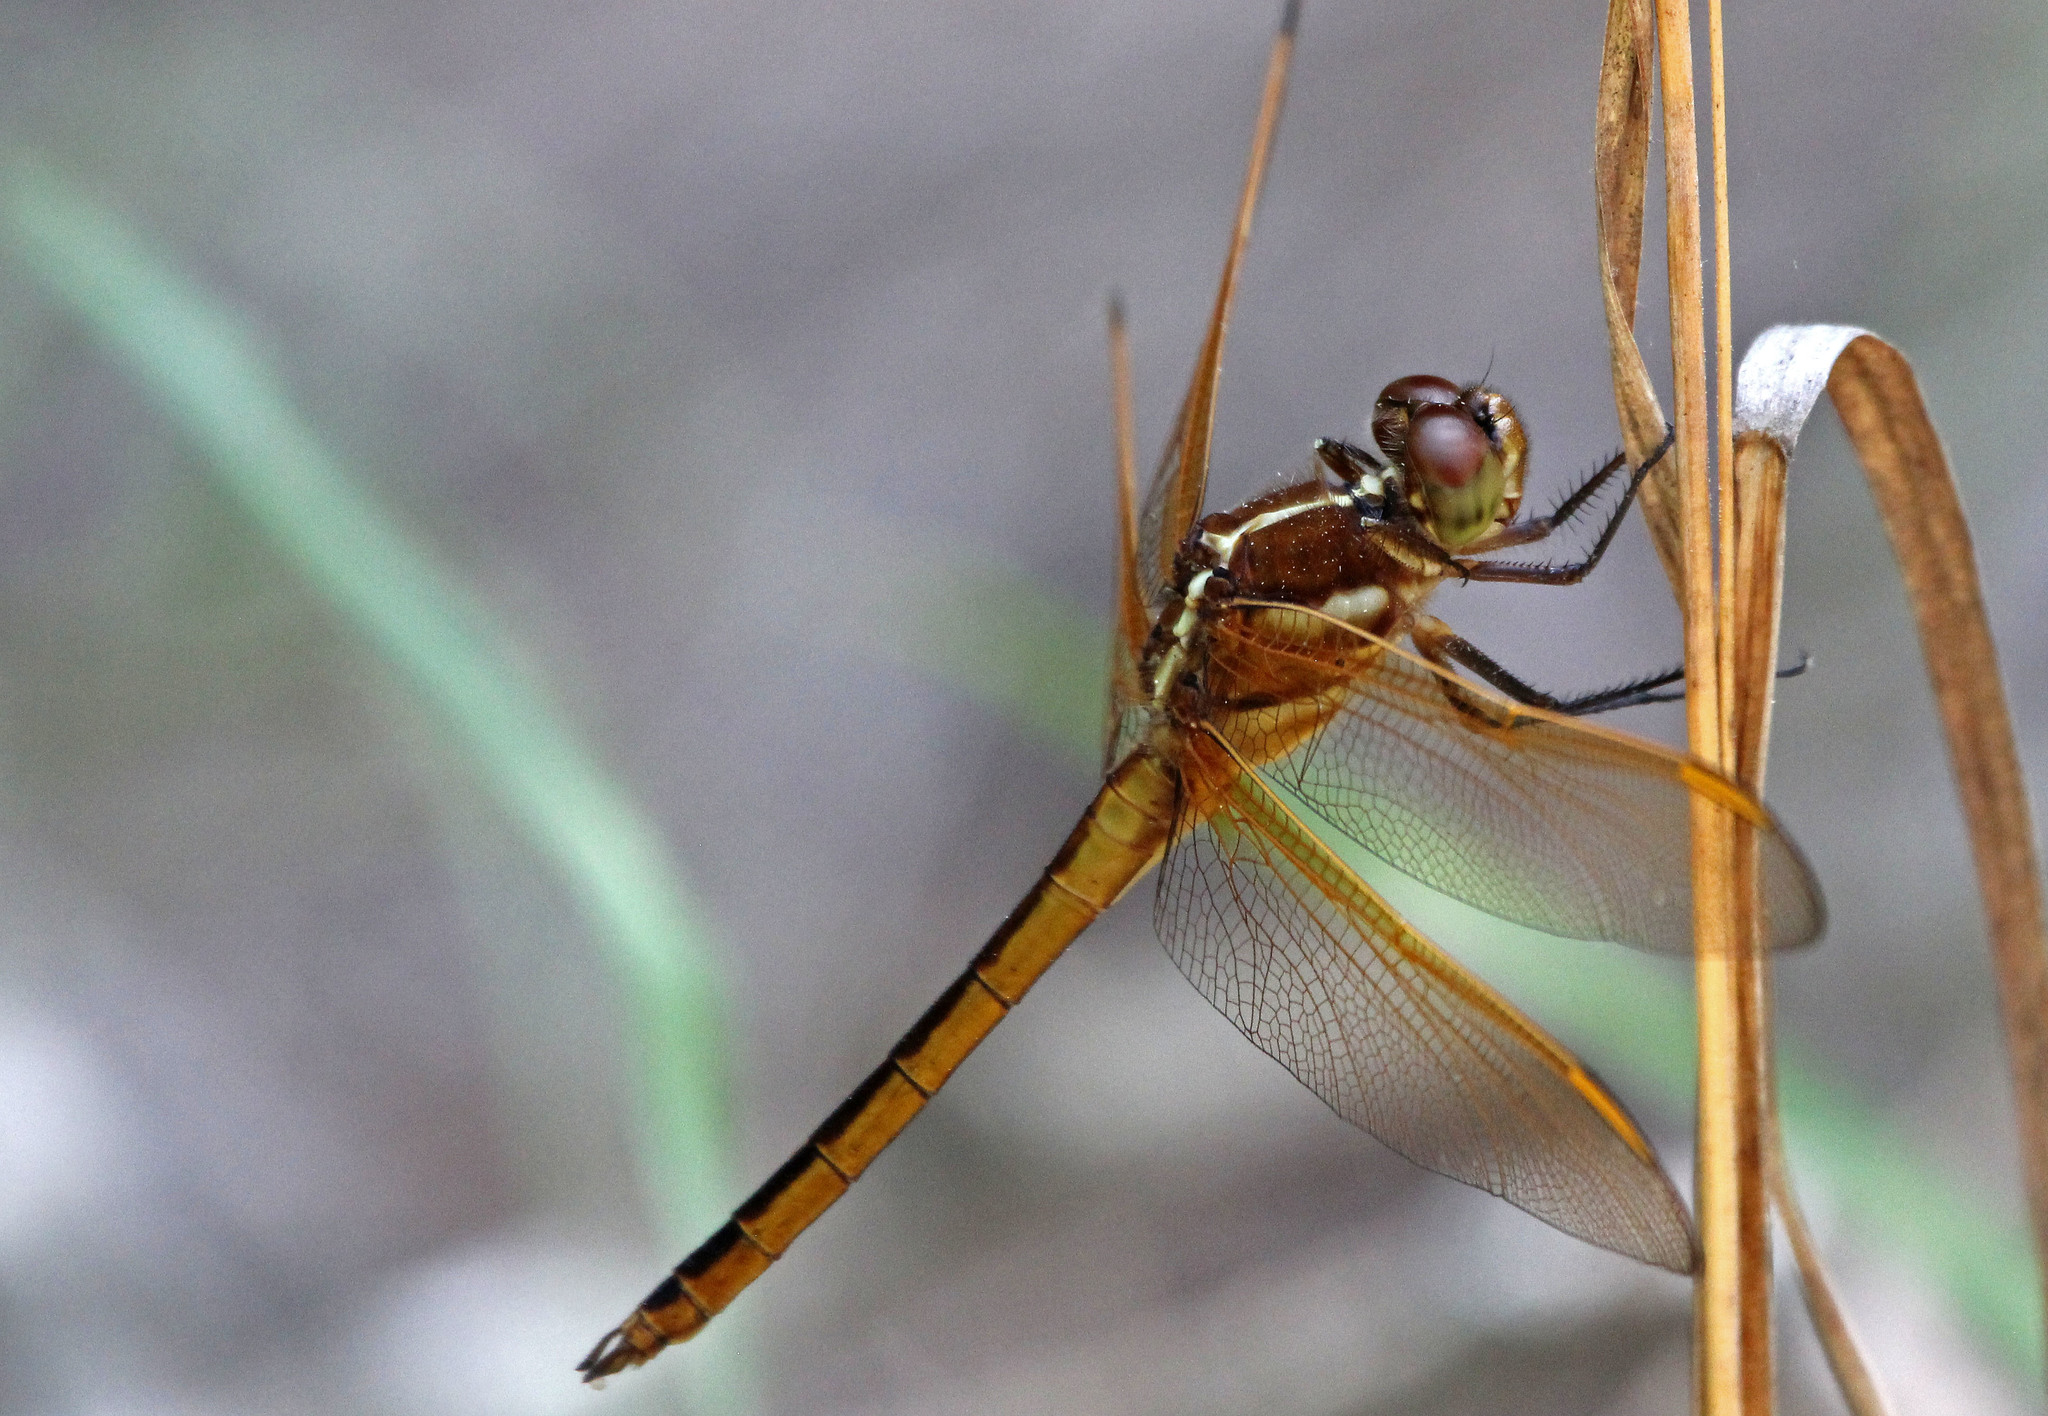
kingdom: Animalia
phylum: Arthropoda
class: Insecta
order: Odonata
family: Libellulidae
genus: Libellula
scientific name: Libellula auripennis
